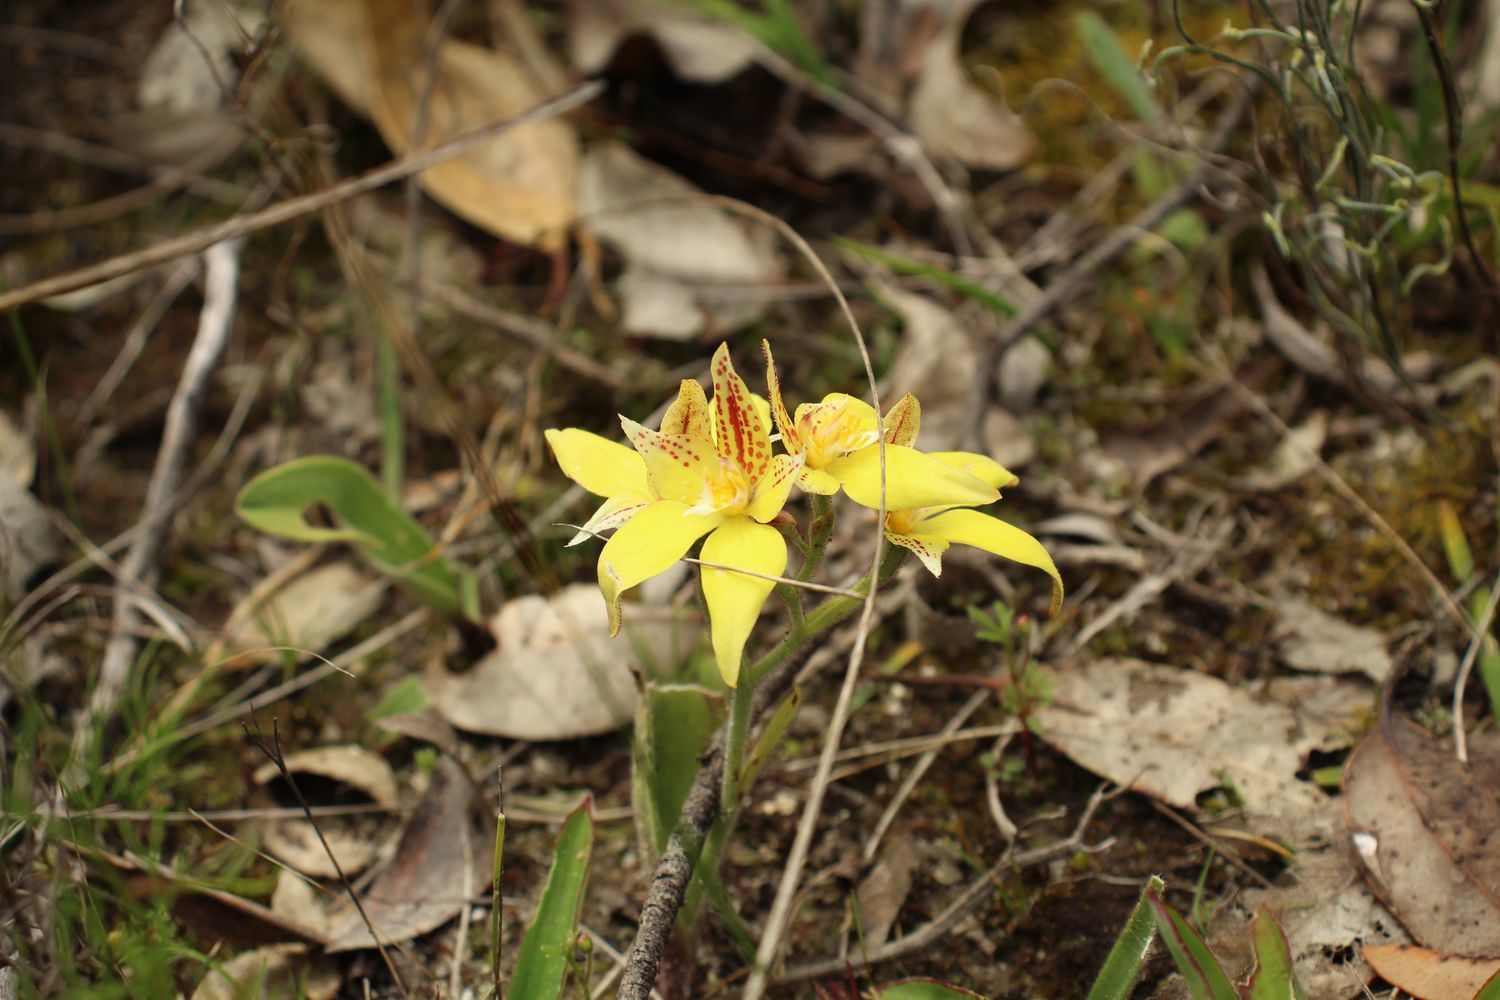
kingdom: Plantae
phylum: Tracheophyta
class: Liliopsida
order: Asparagales
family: Orchidaceae
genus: Caladenia
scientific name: Caladenia flava
